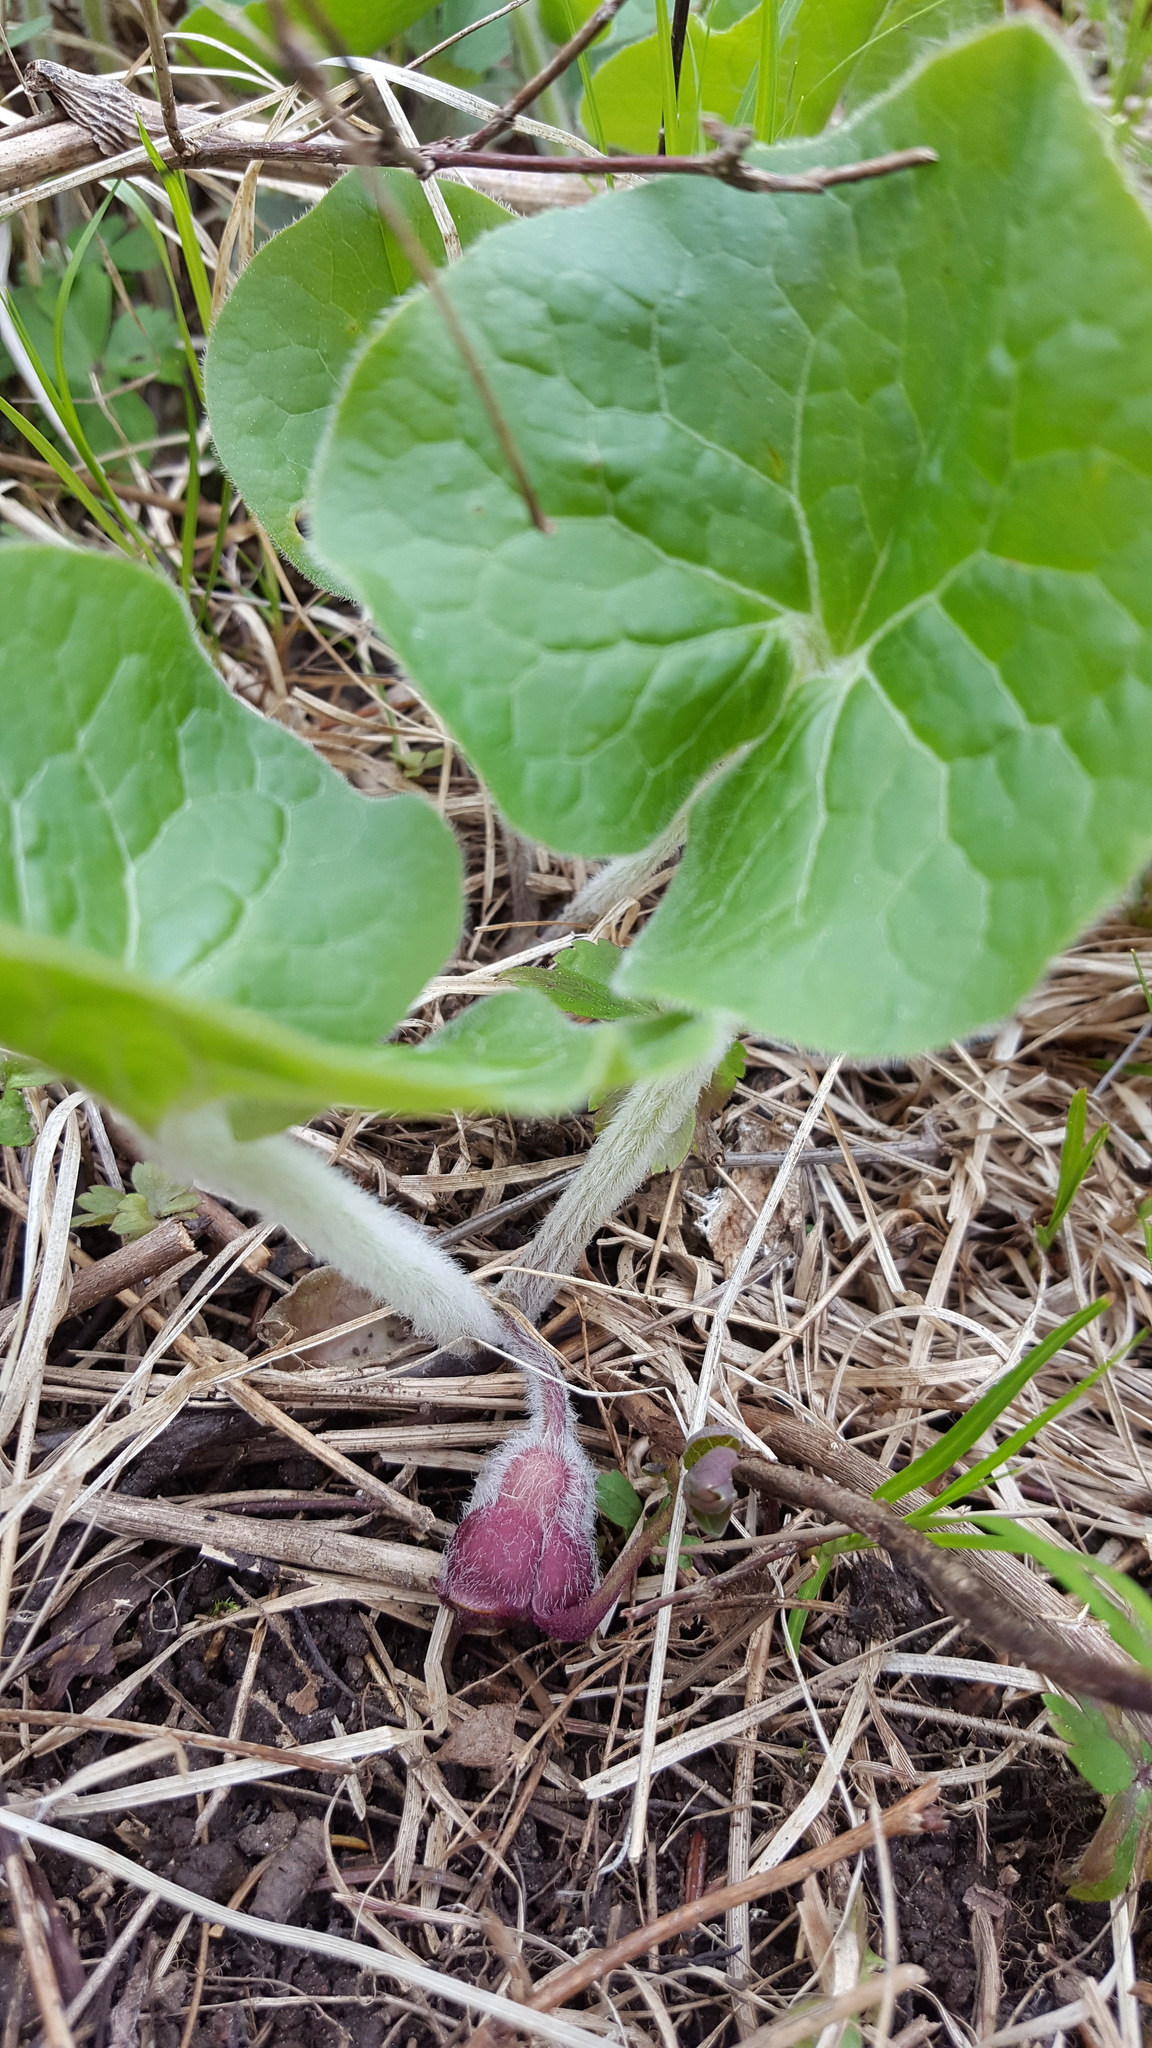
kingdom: Plantae
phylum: Tracheophyta
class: Magnoliopsida
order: Piperales
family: Aristolochiaceae
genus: Asarum
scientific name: Asarum canadense
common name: Wild ginger
